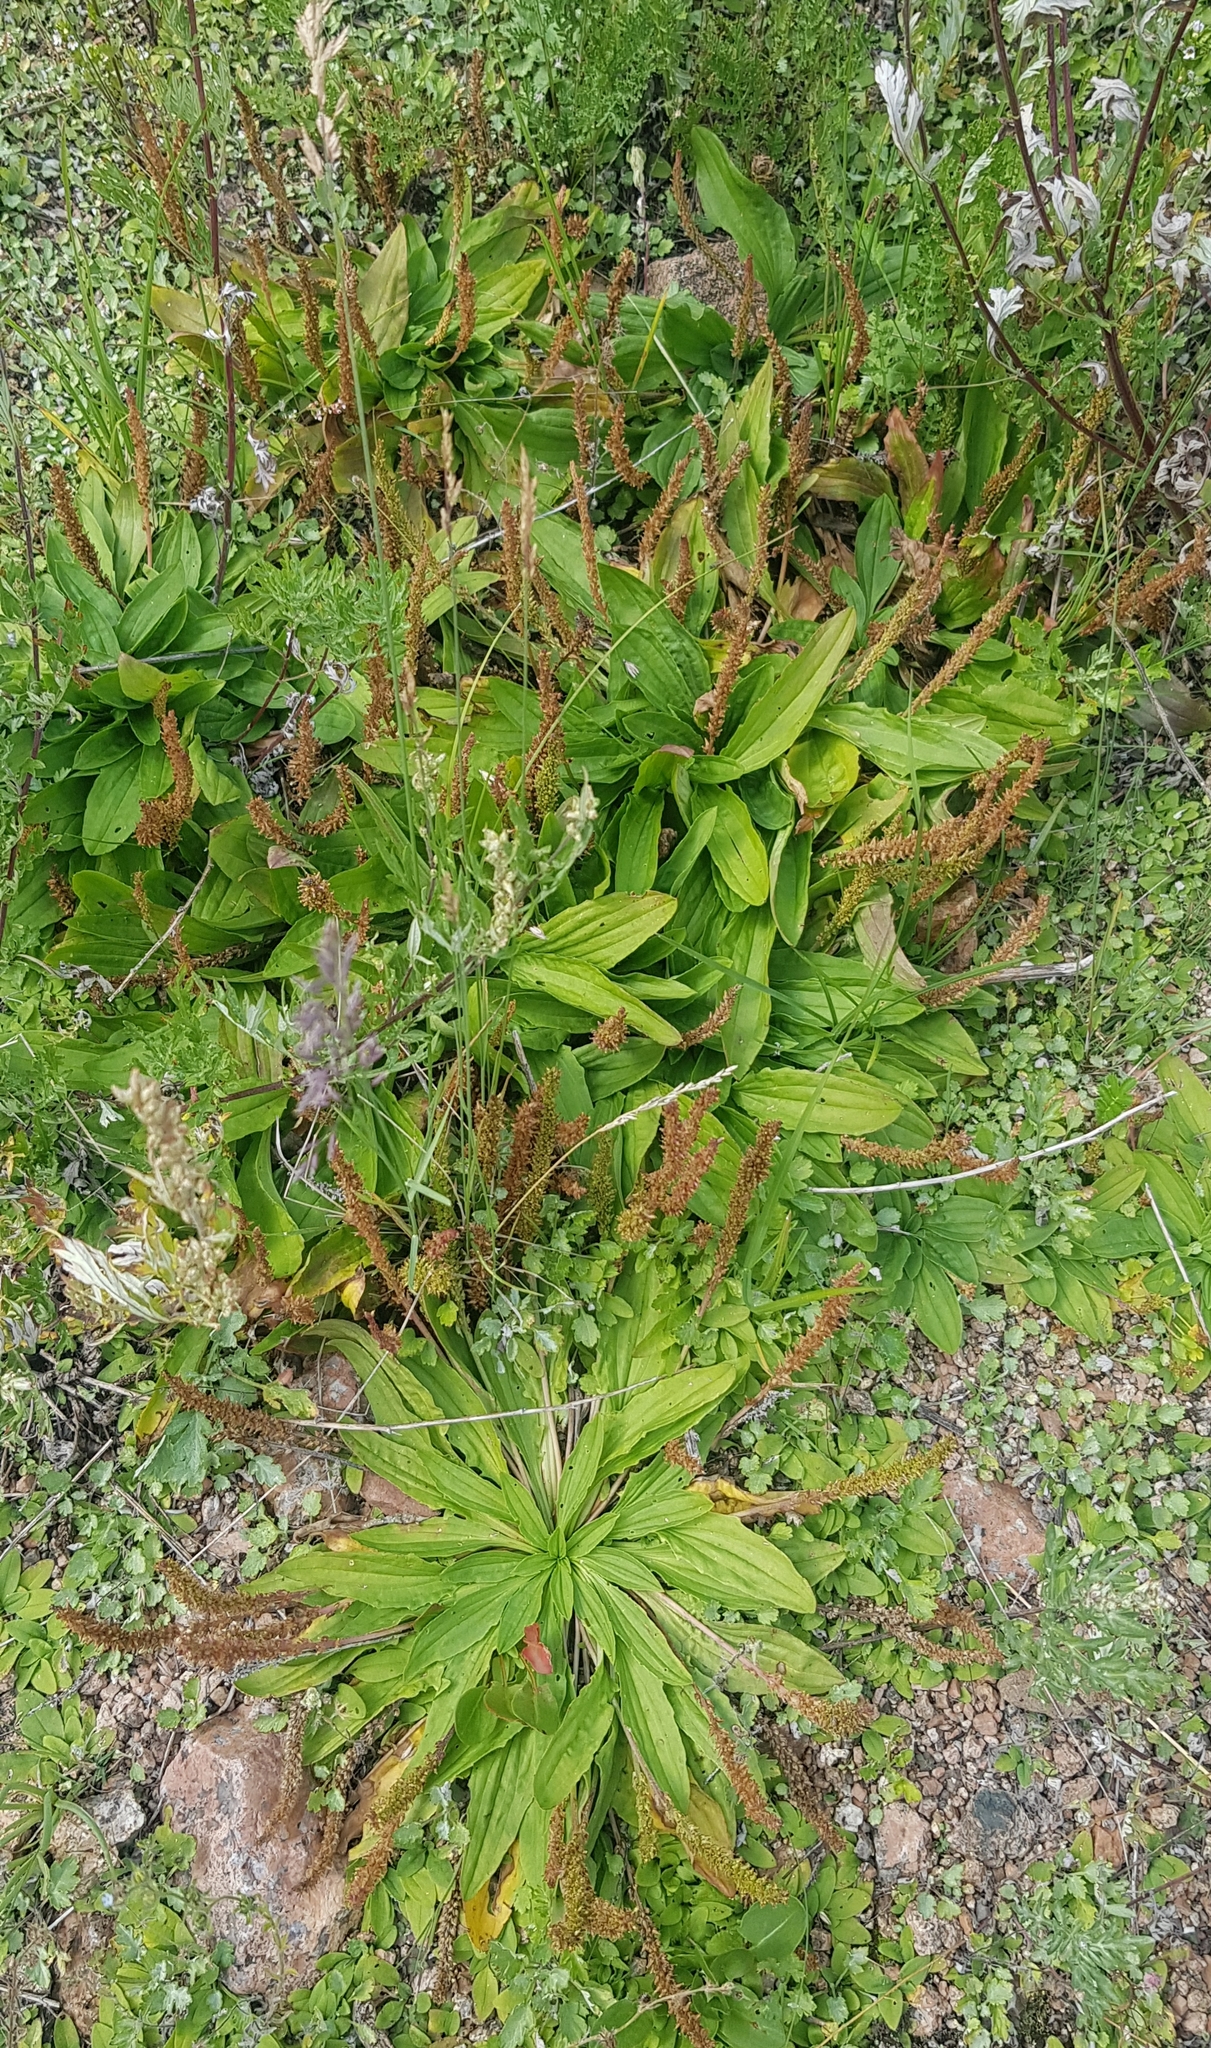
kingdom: Plantae
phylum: Tracheophyta
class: Magnoliopsida
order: Lamiales
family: Plantaginaceae
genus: Plantago
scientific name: Plantago depressa
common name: Depressed plantain
